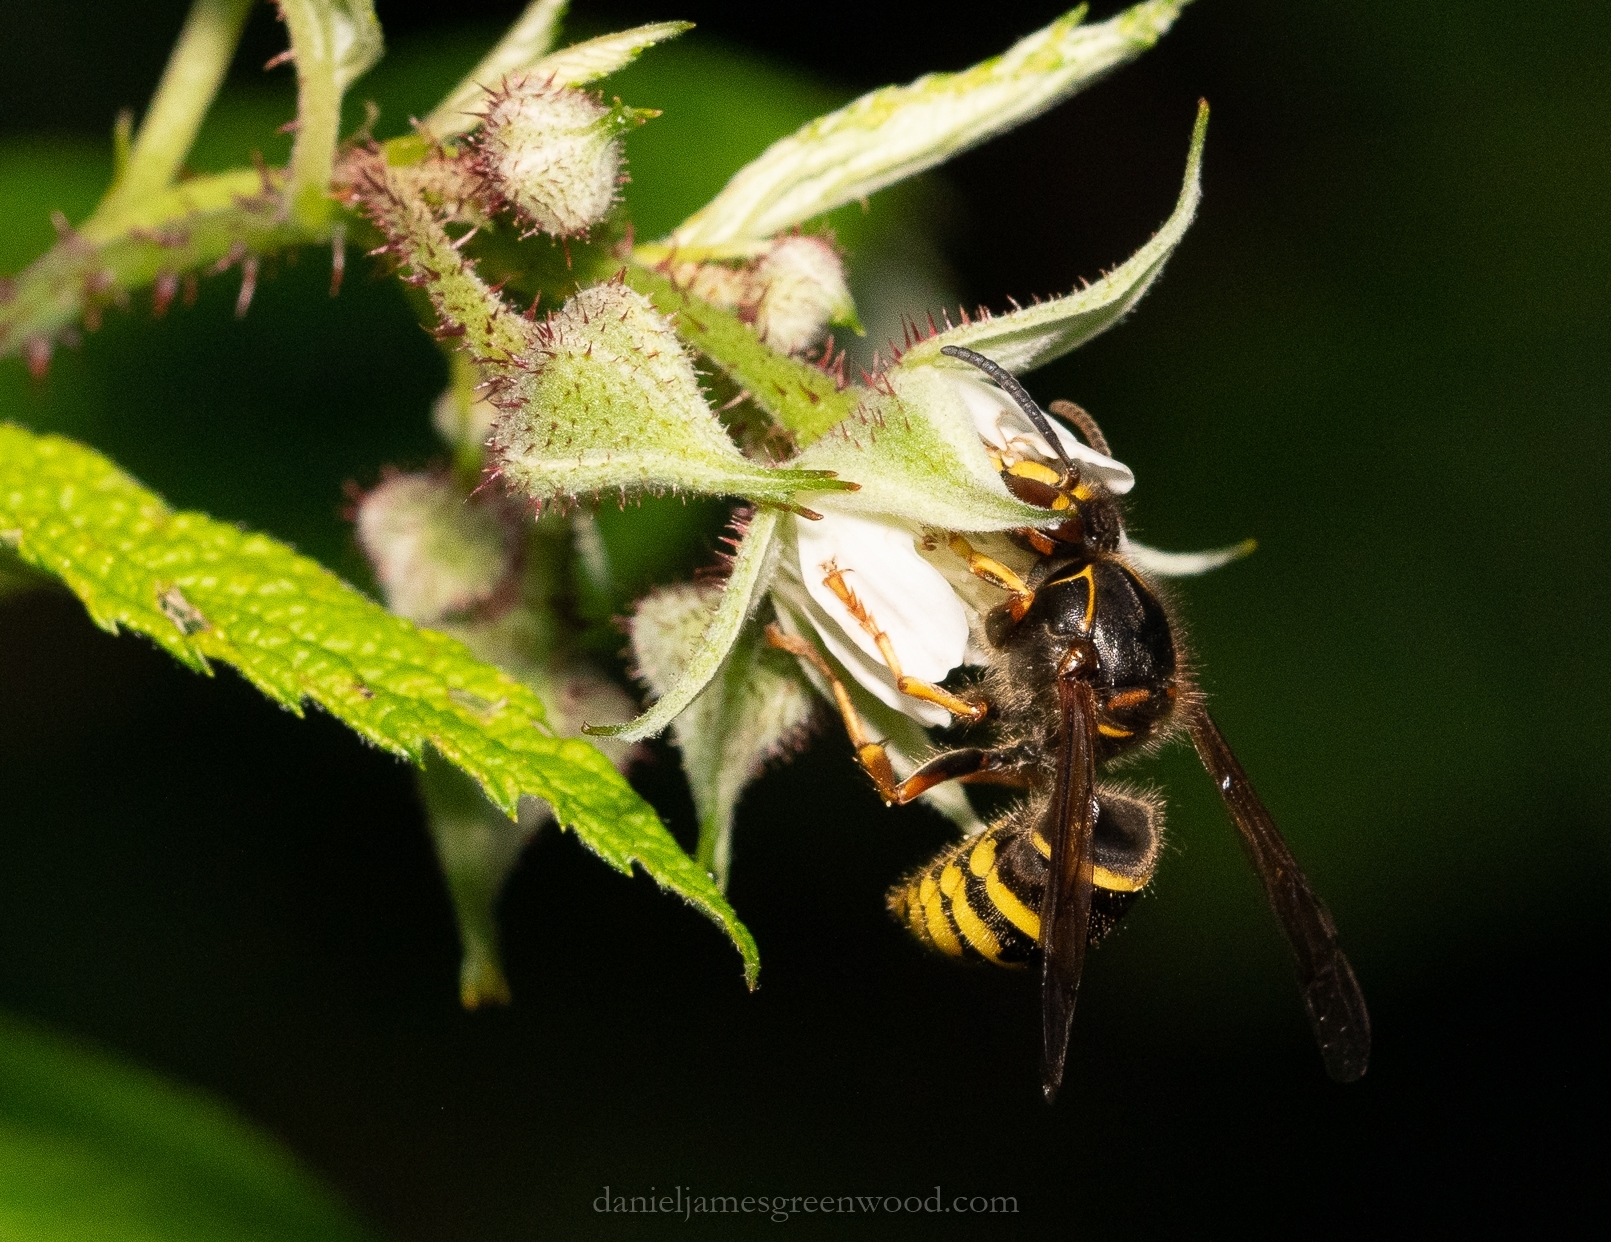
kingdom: Animalia
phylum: Arthropoda
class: Insecta
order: Hymenoptera
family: Vespidae
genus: Dolichovespula
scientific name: Dolichovespula media
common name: Median wasp
